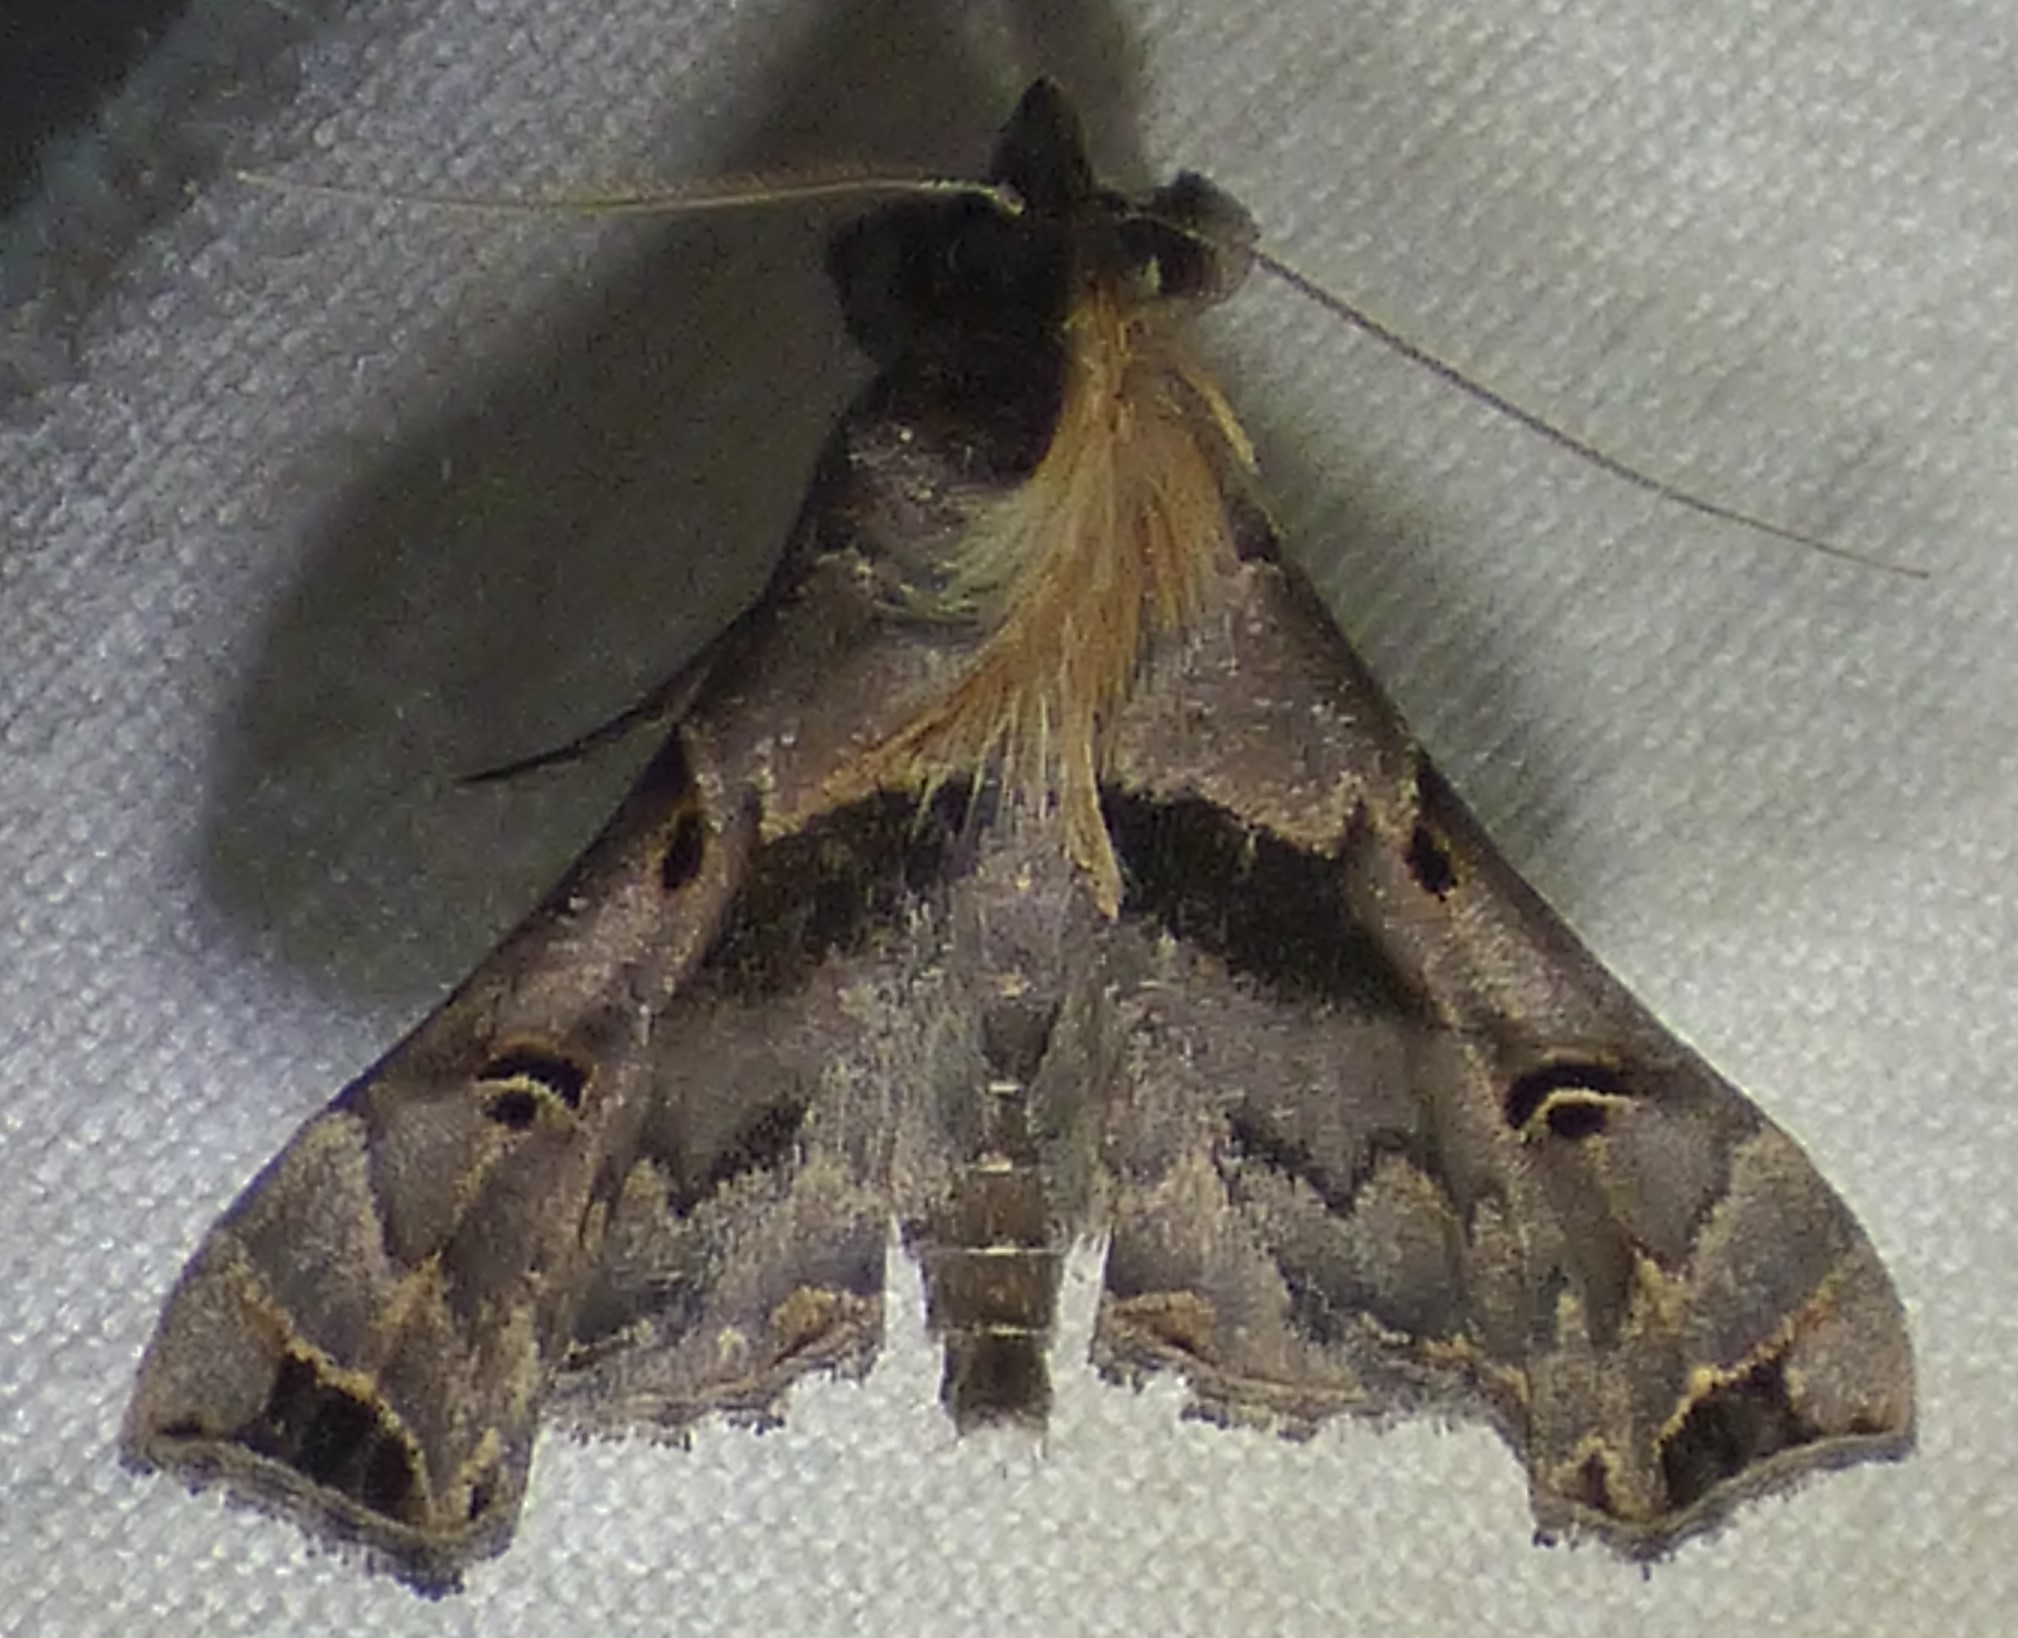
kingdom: Animalia
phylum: Arthropoda
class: Insecta
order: Lepidoptera
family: Erebidae
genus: Palthis
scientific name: Palthis asopialis
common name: Faint-spotted palthis moth
